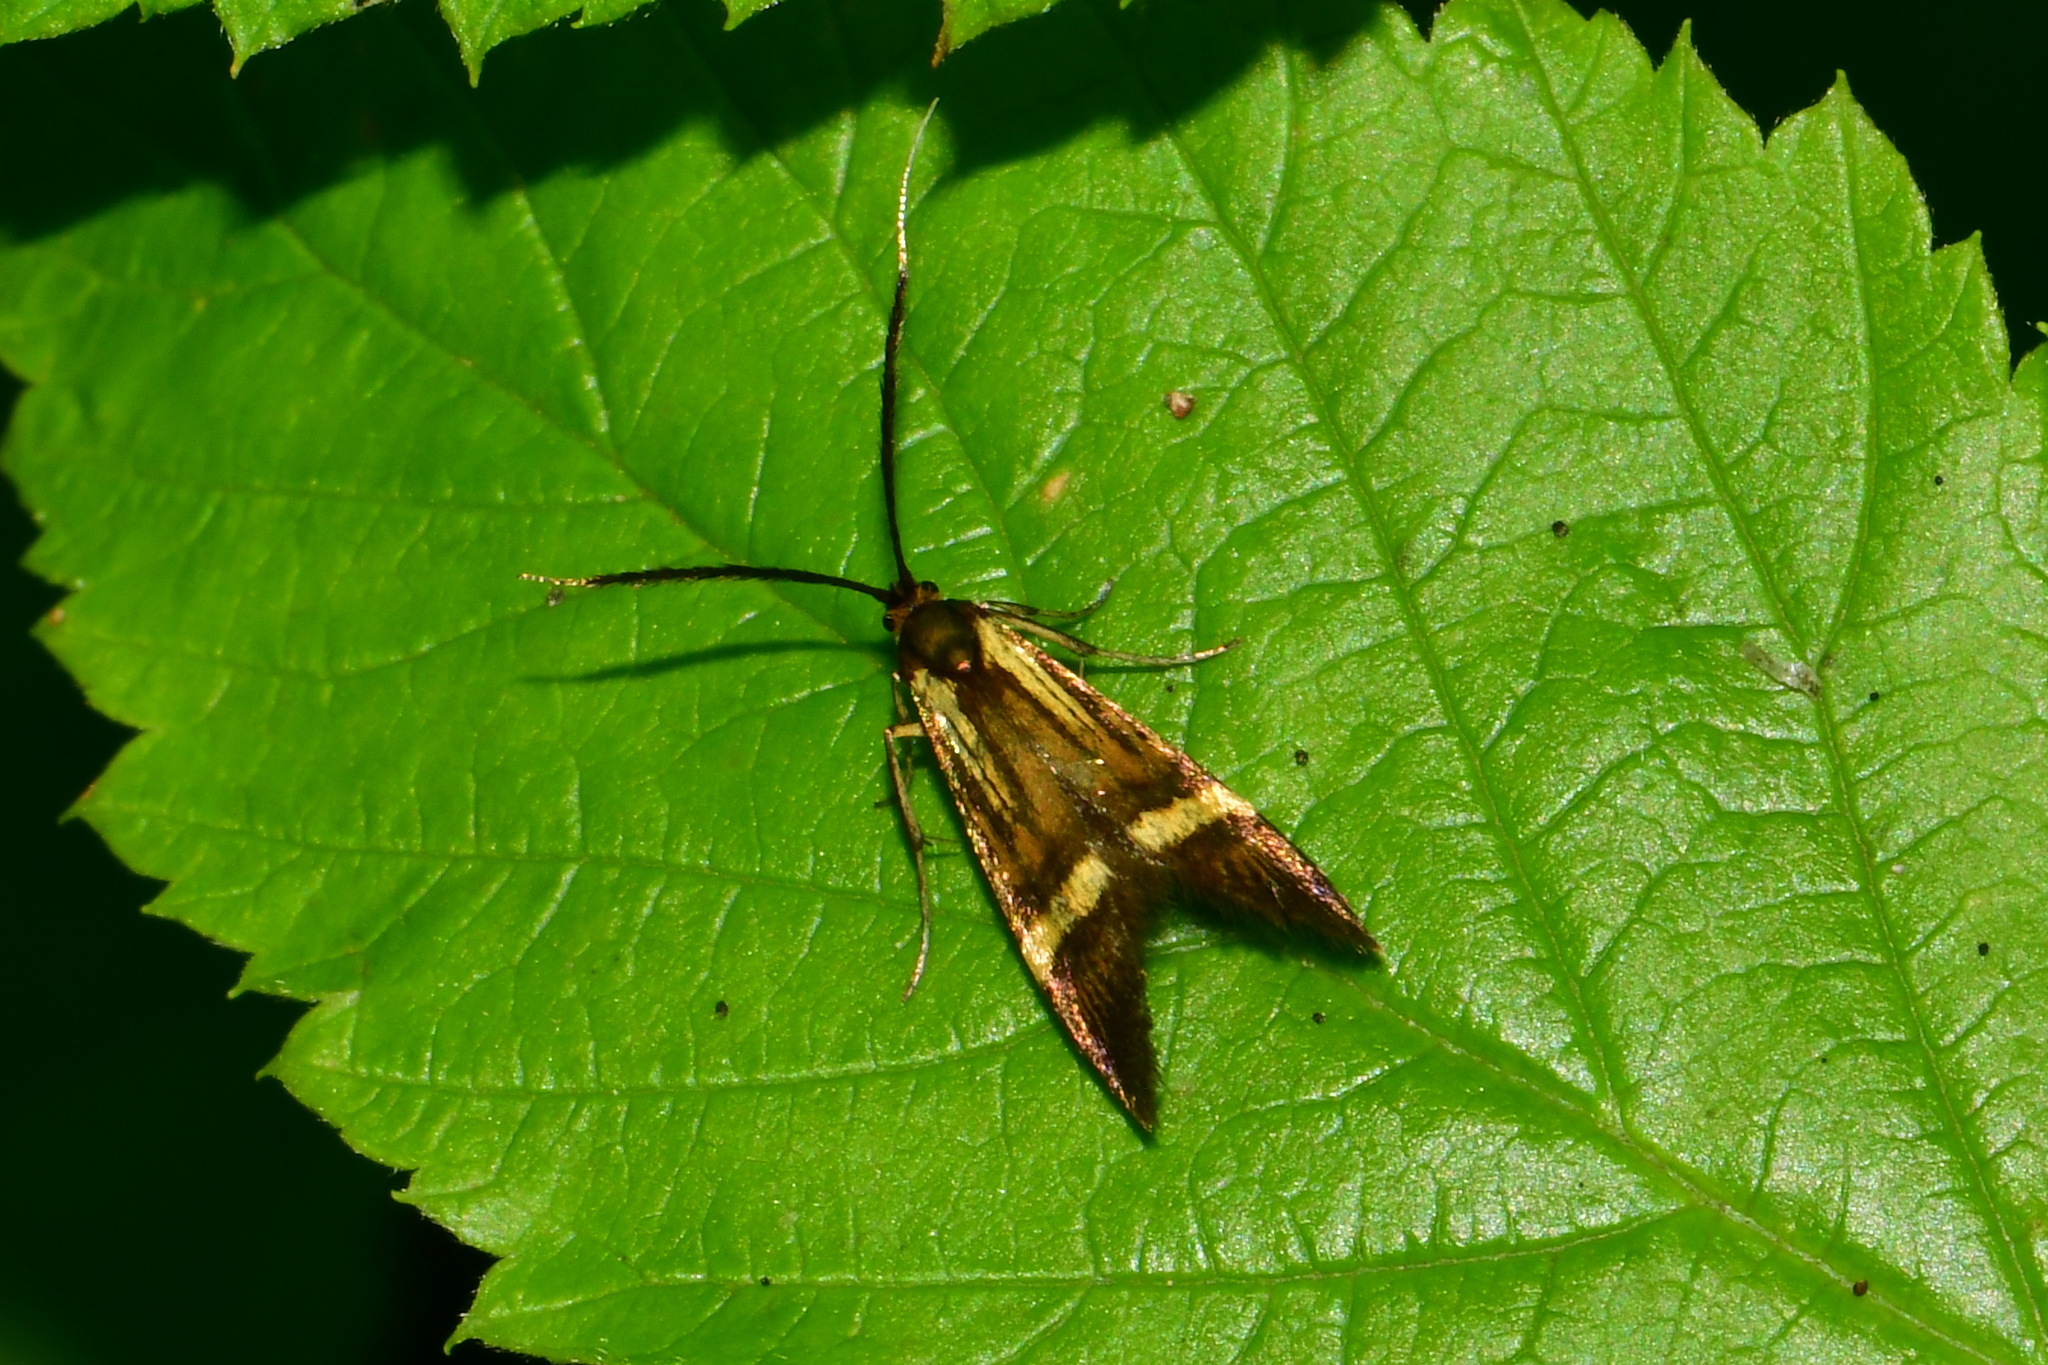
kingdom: Animalia
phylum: Arthropoda
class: Insecta
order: Lepidoptera
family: Adelidae
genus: Nemophora
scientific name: Nemophora degeerella
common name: Yellow-barred long-horn
